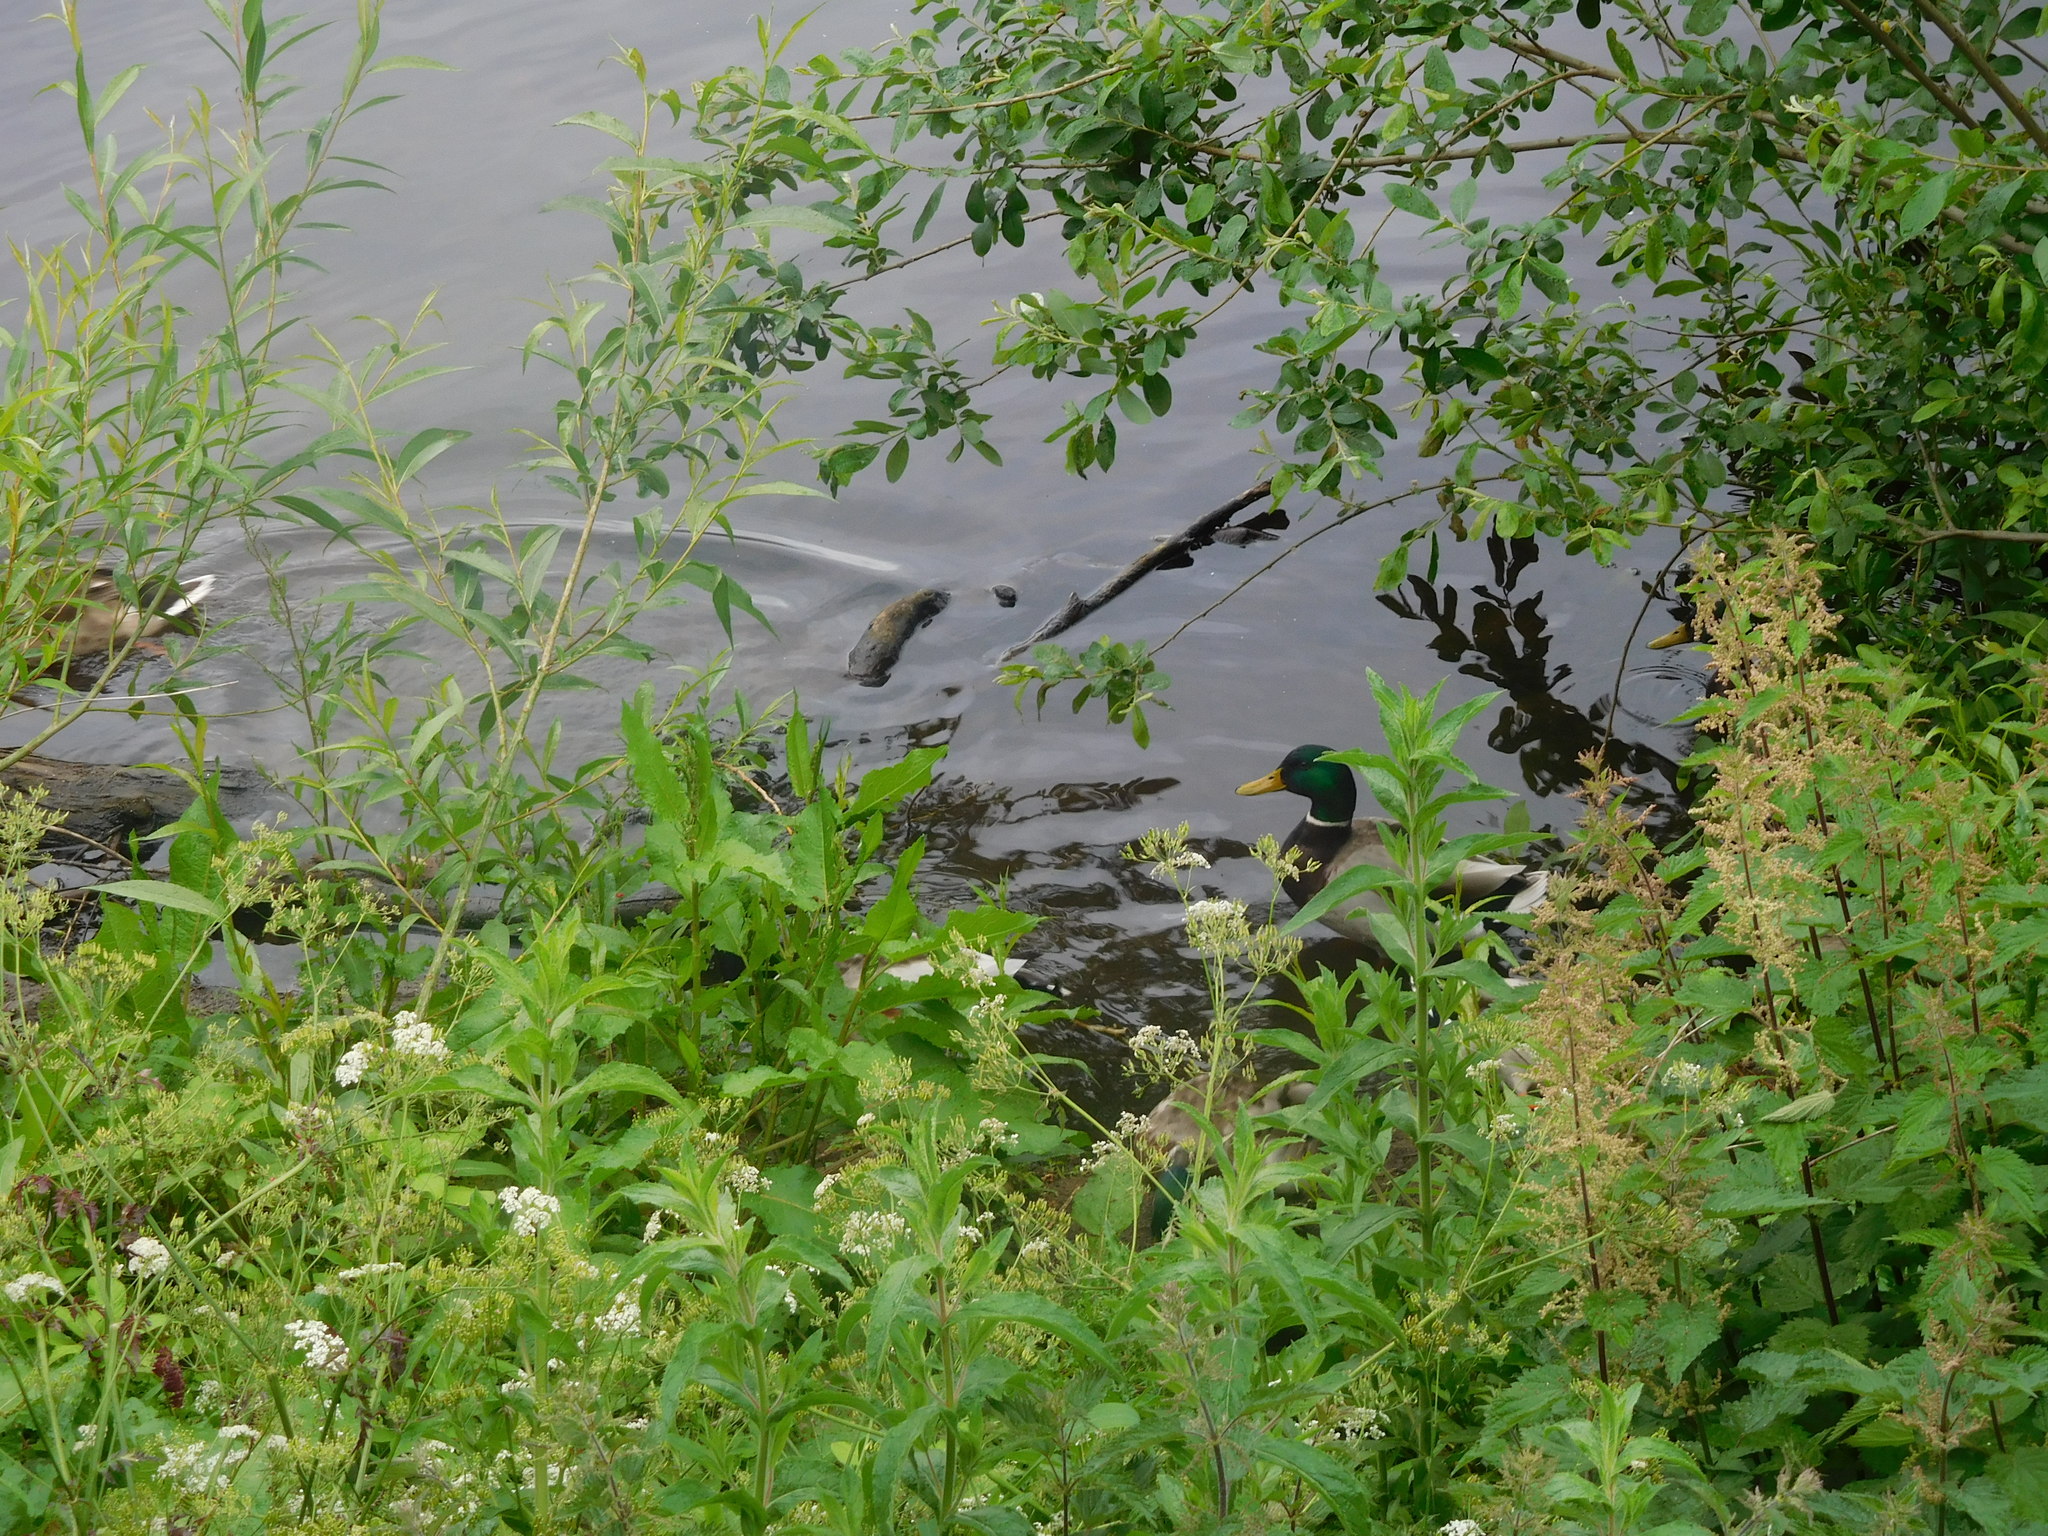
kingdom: Animalia
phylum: Chordata
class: Aves
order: Anseriformes
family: Anatidae
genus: Anas
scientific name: Anas platyrhynchos
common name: Mallard
